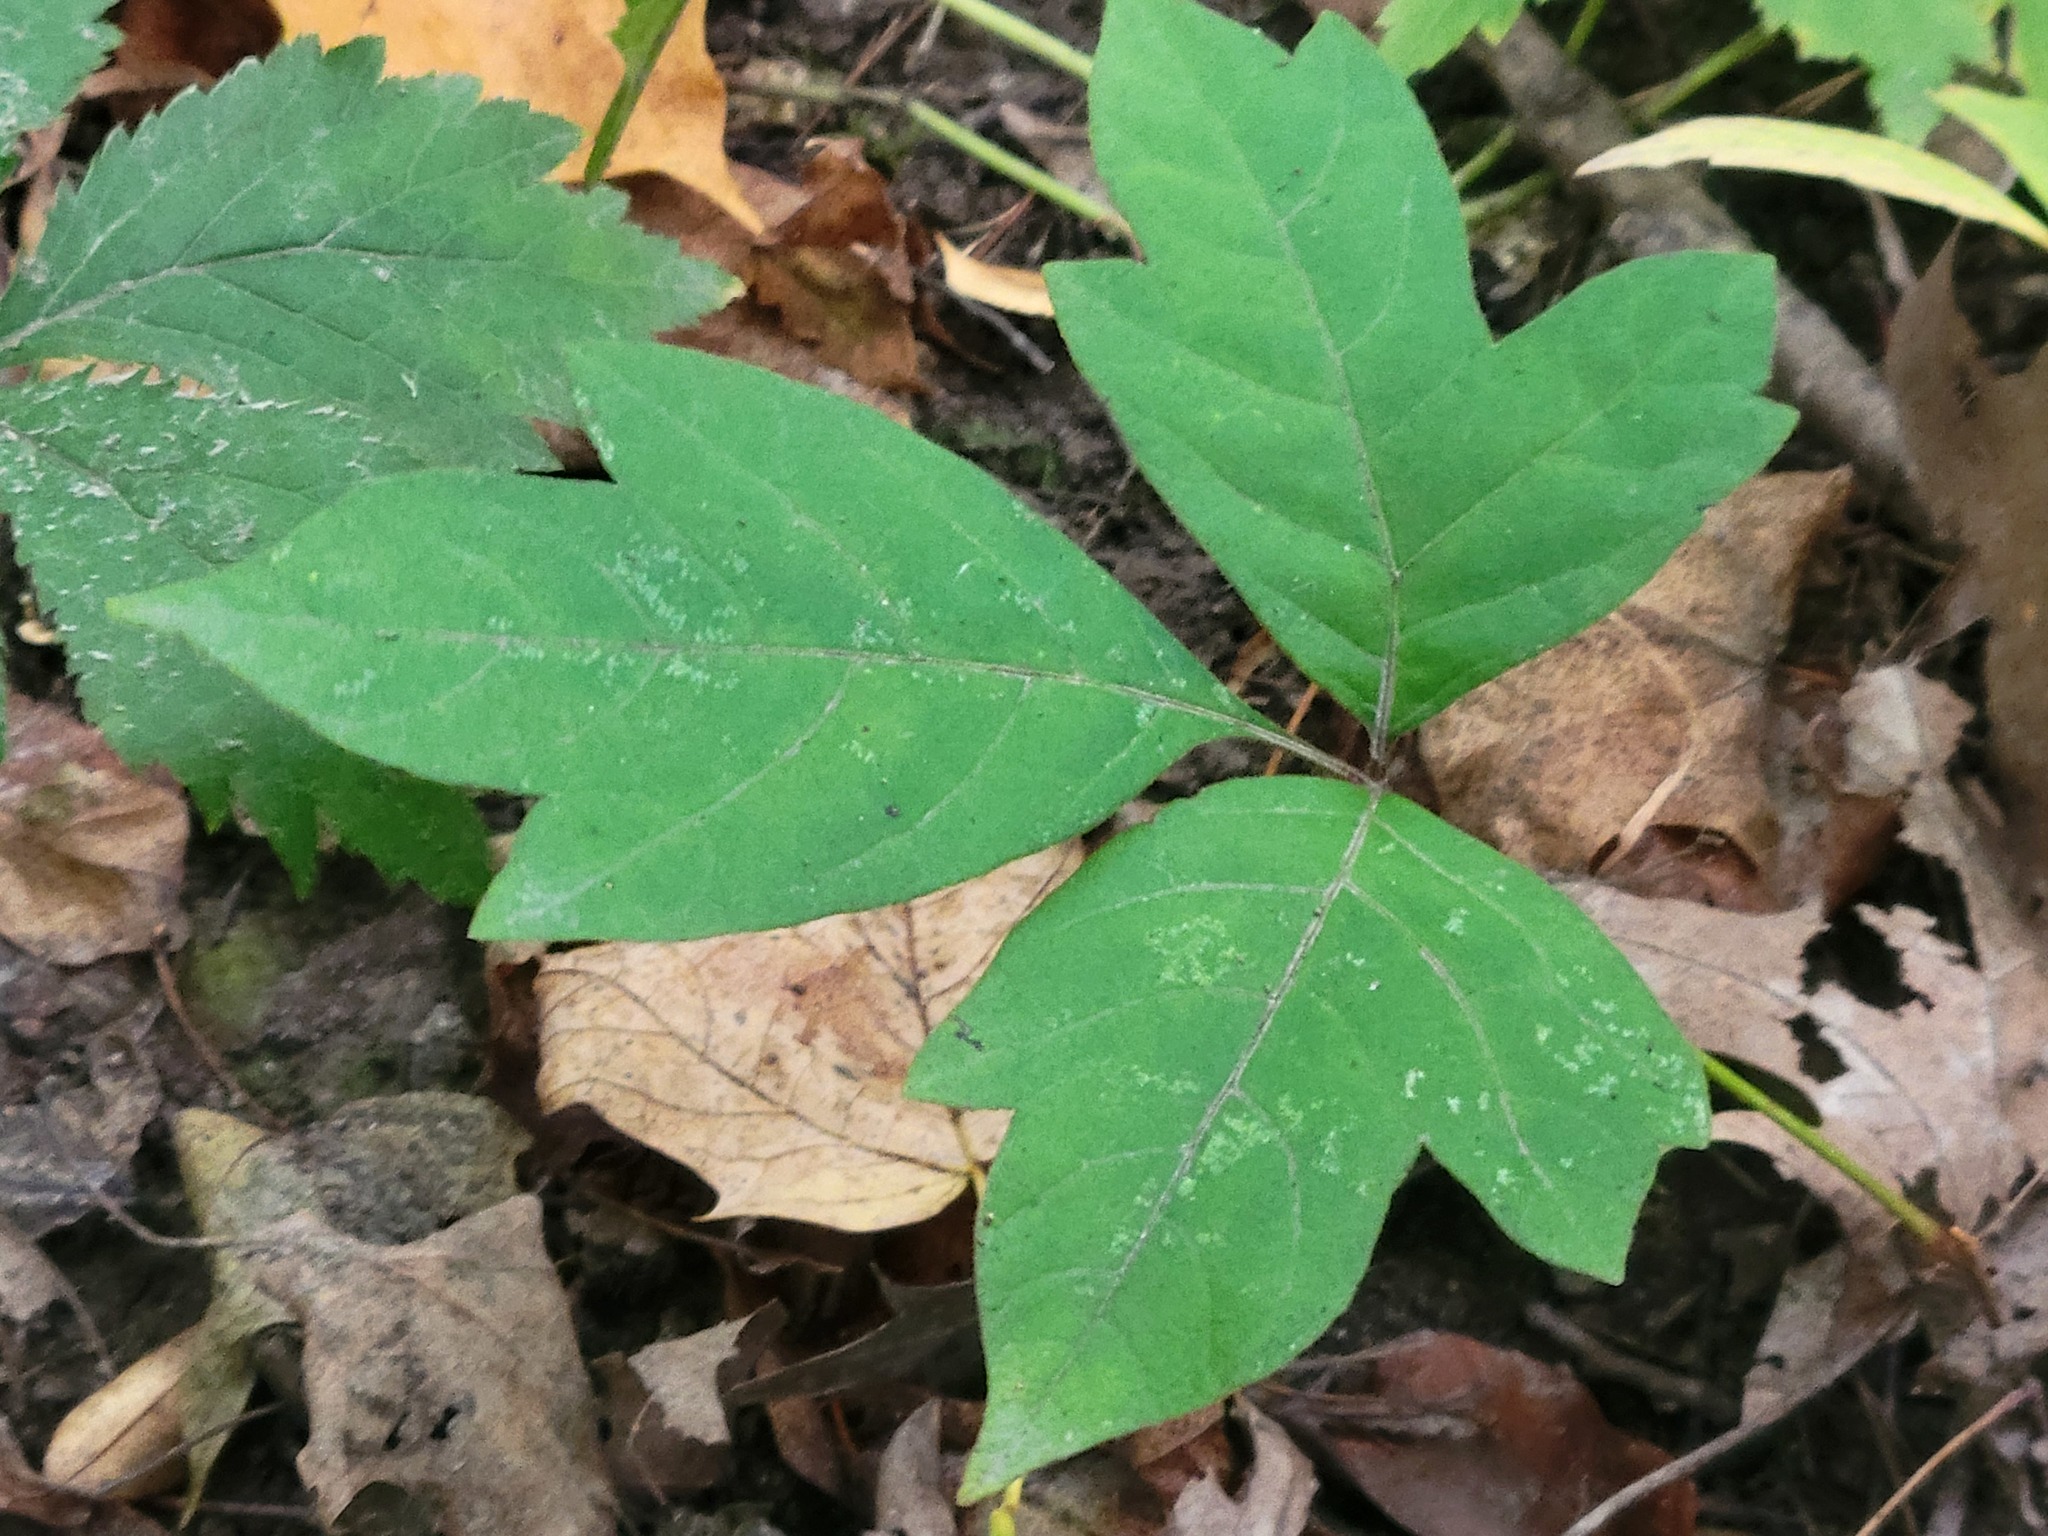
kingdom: Plantae
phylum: Tracheophyta
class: Magnoliopsida
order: Sapindales
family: Anacardiaceae
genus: Toxicodendron
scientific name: Toxicodendron radicans
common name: Poison ivy
